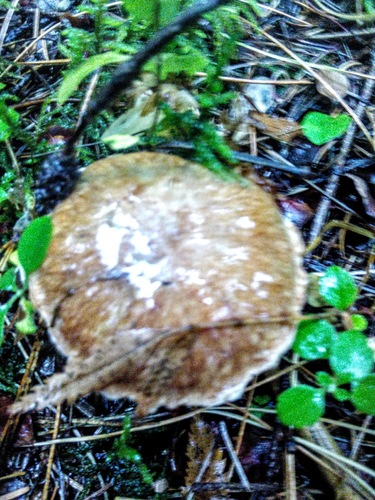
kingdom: Fungi
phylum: Basidiomycota
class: Agaricomycetes
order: Boletales
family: Suillaceae
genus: Suillus
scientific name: Suillus acidus
